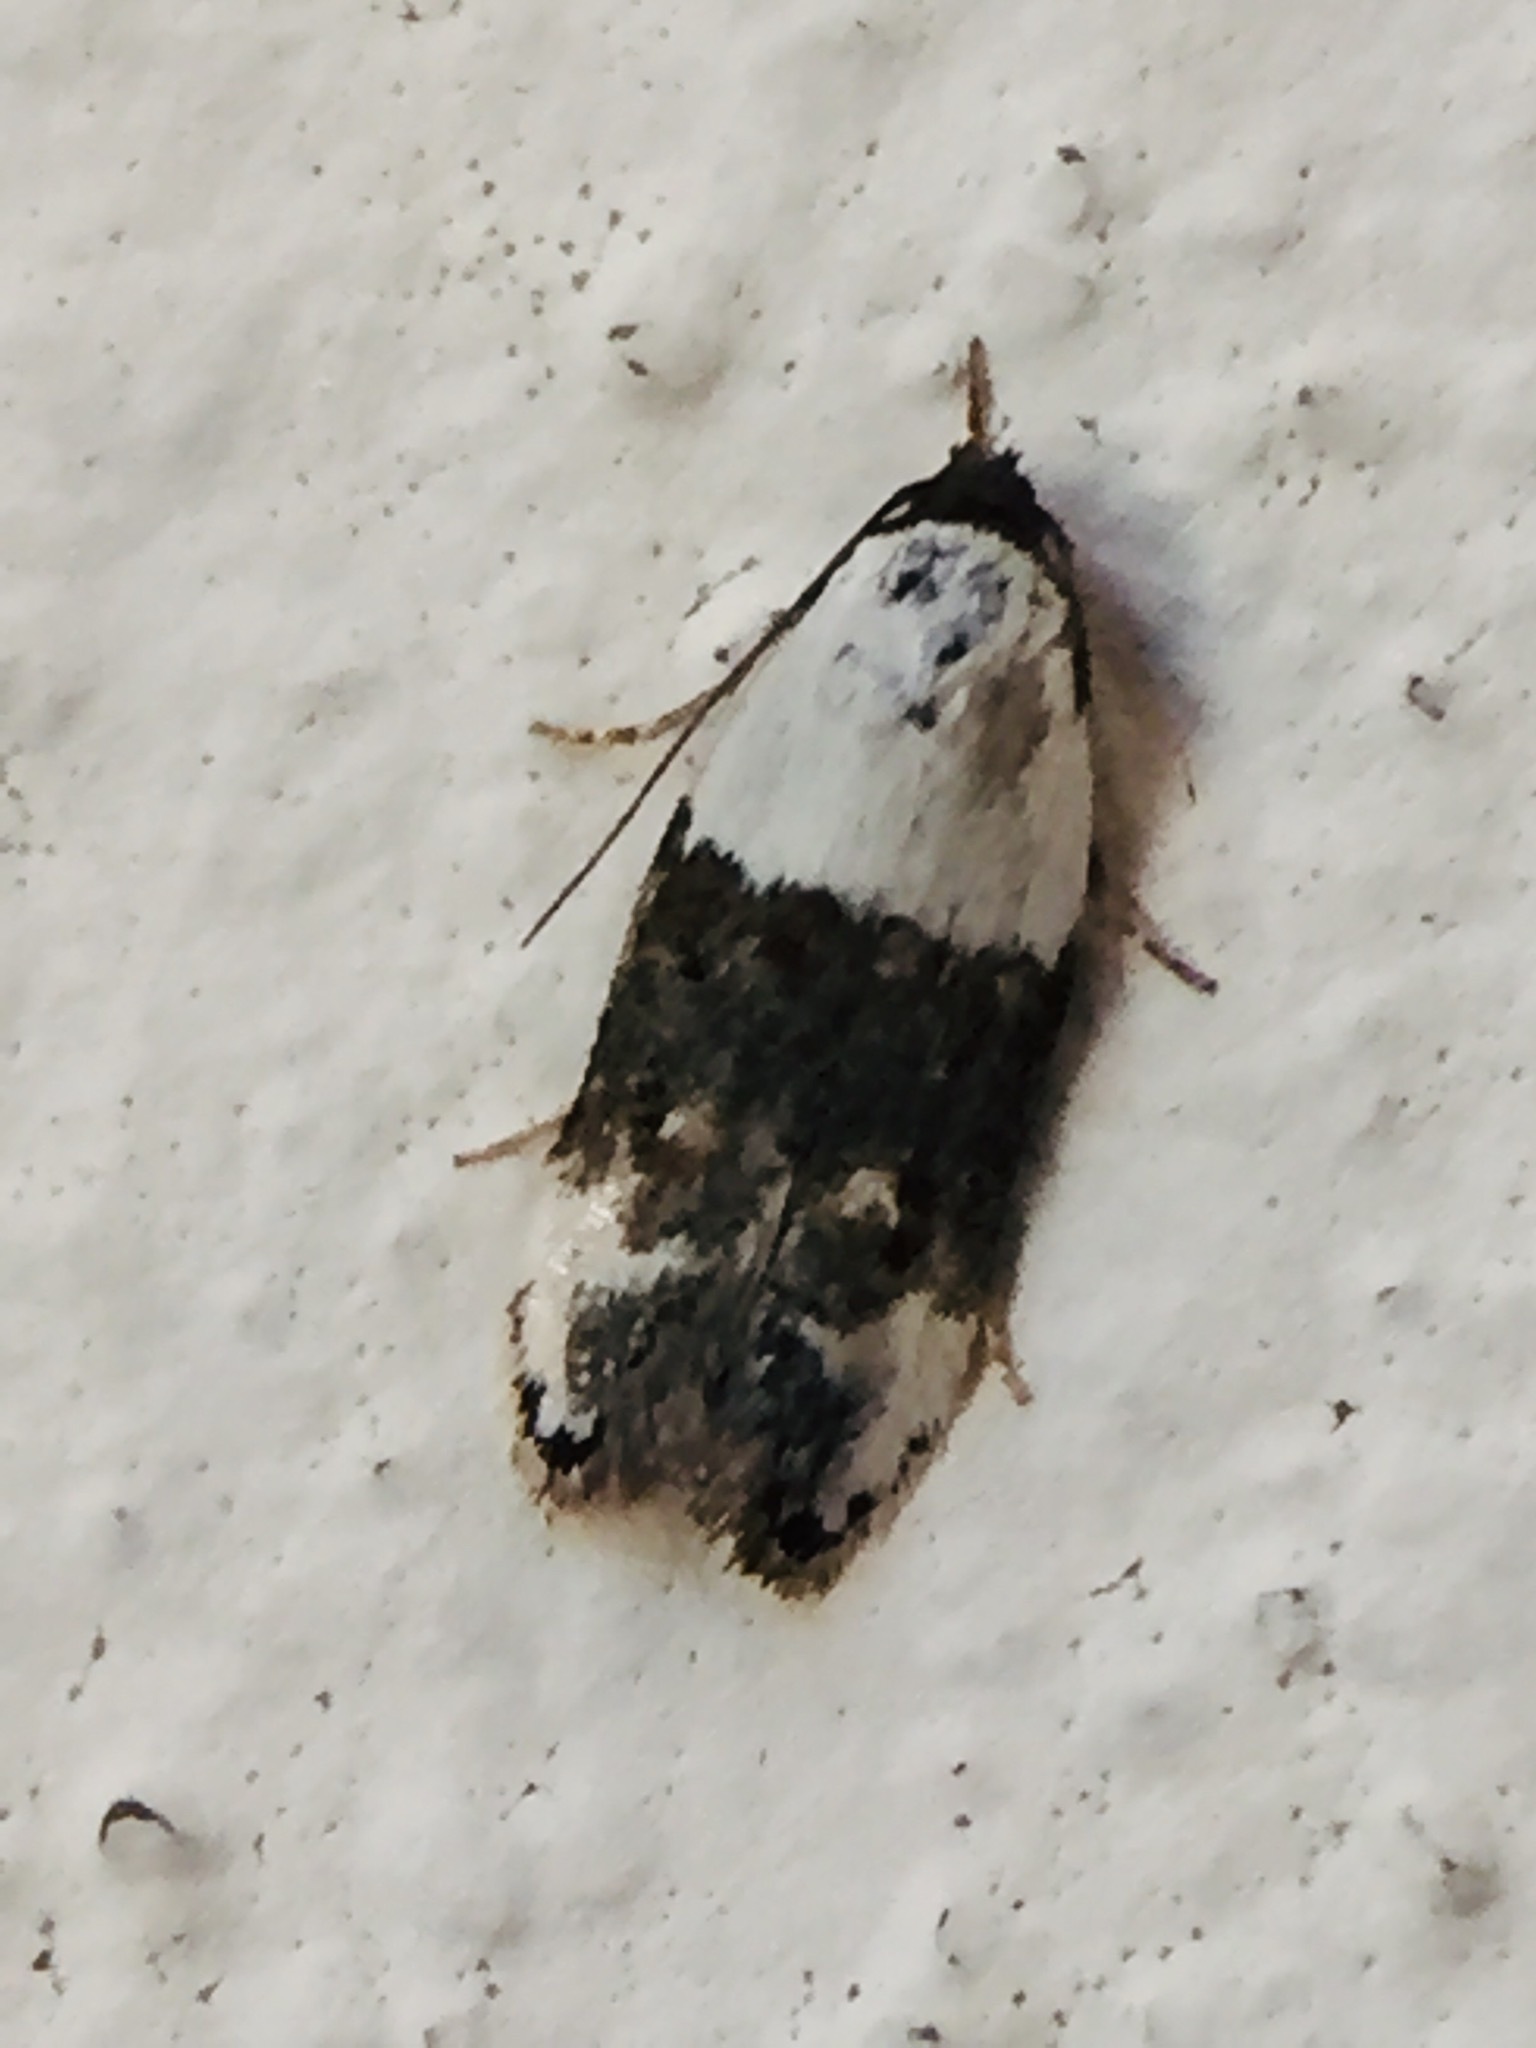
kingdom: Animalia
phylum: Arthropoda
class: Insecta
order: Lepidoptera
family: Oecophoridae
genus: Trachypepla
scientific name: Trachypepla amphileuca
